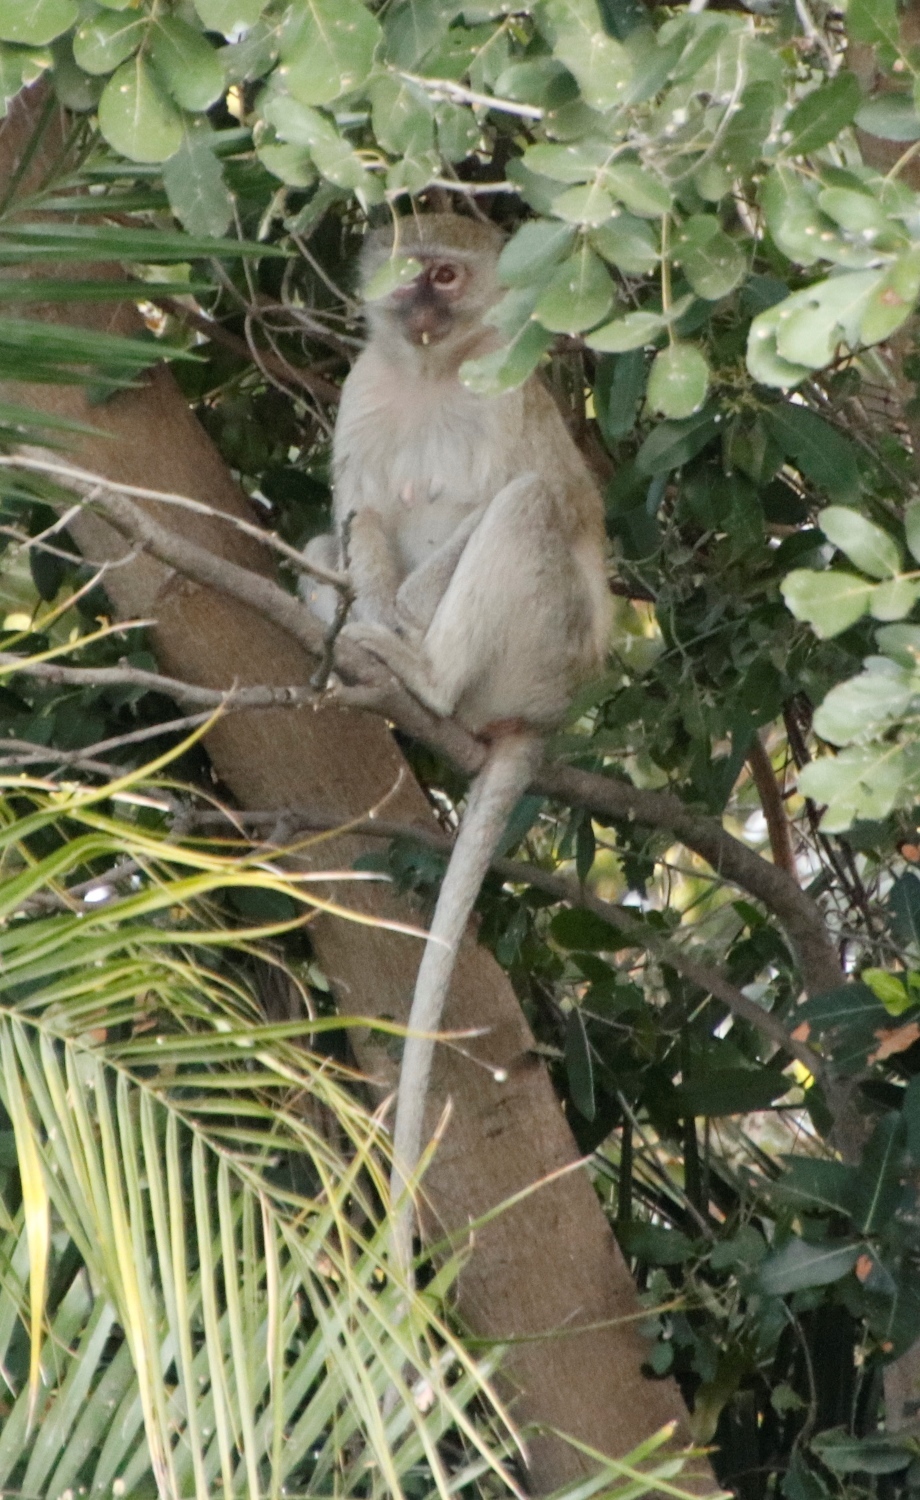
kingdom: Animalia
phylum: Chordata
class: Mammalia
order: Primates
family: Cercopithecidae
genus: Chlorocebus
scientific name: Chlorocebus cynosuros
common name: Malbrouck
